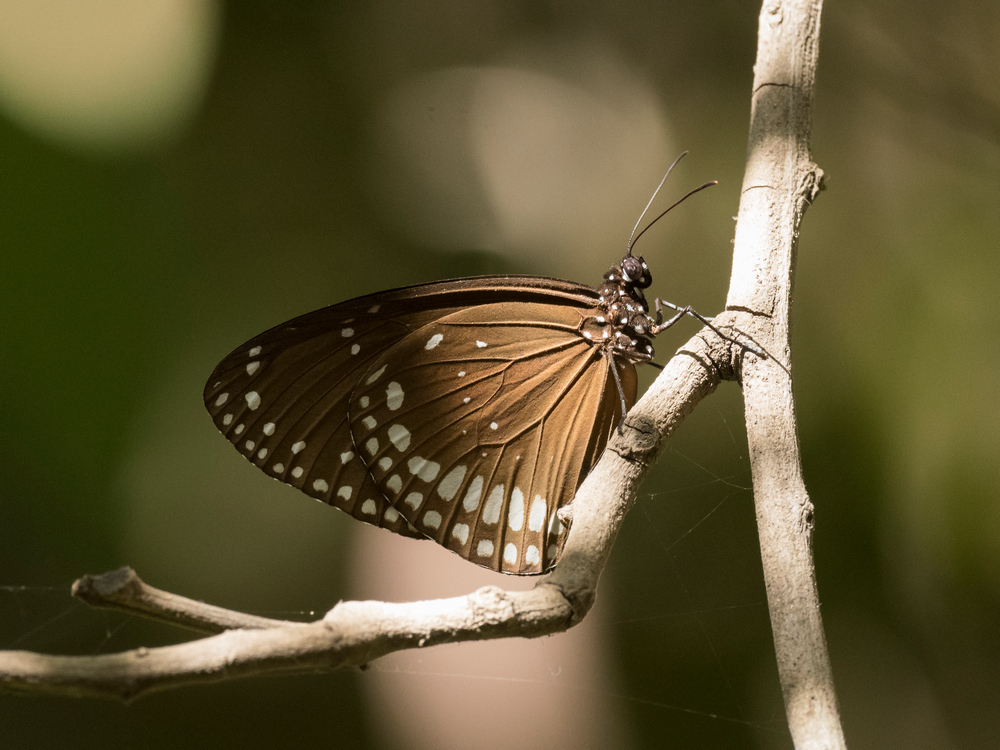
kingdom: Animalia
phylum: Arthropoda
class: Insecta
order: Lepidoptera
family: Nymphalidae
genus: Euploea
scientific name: Euploea core
